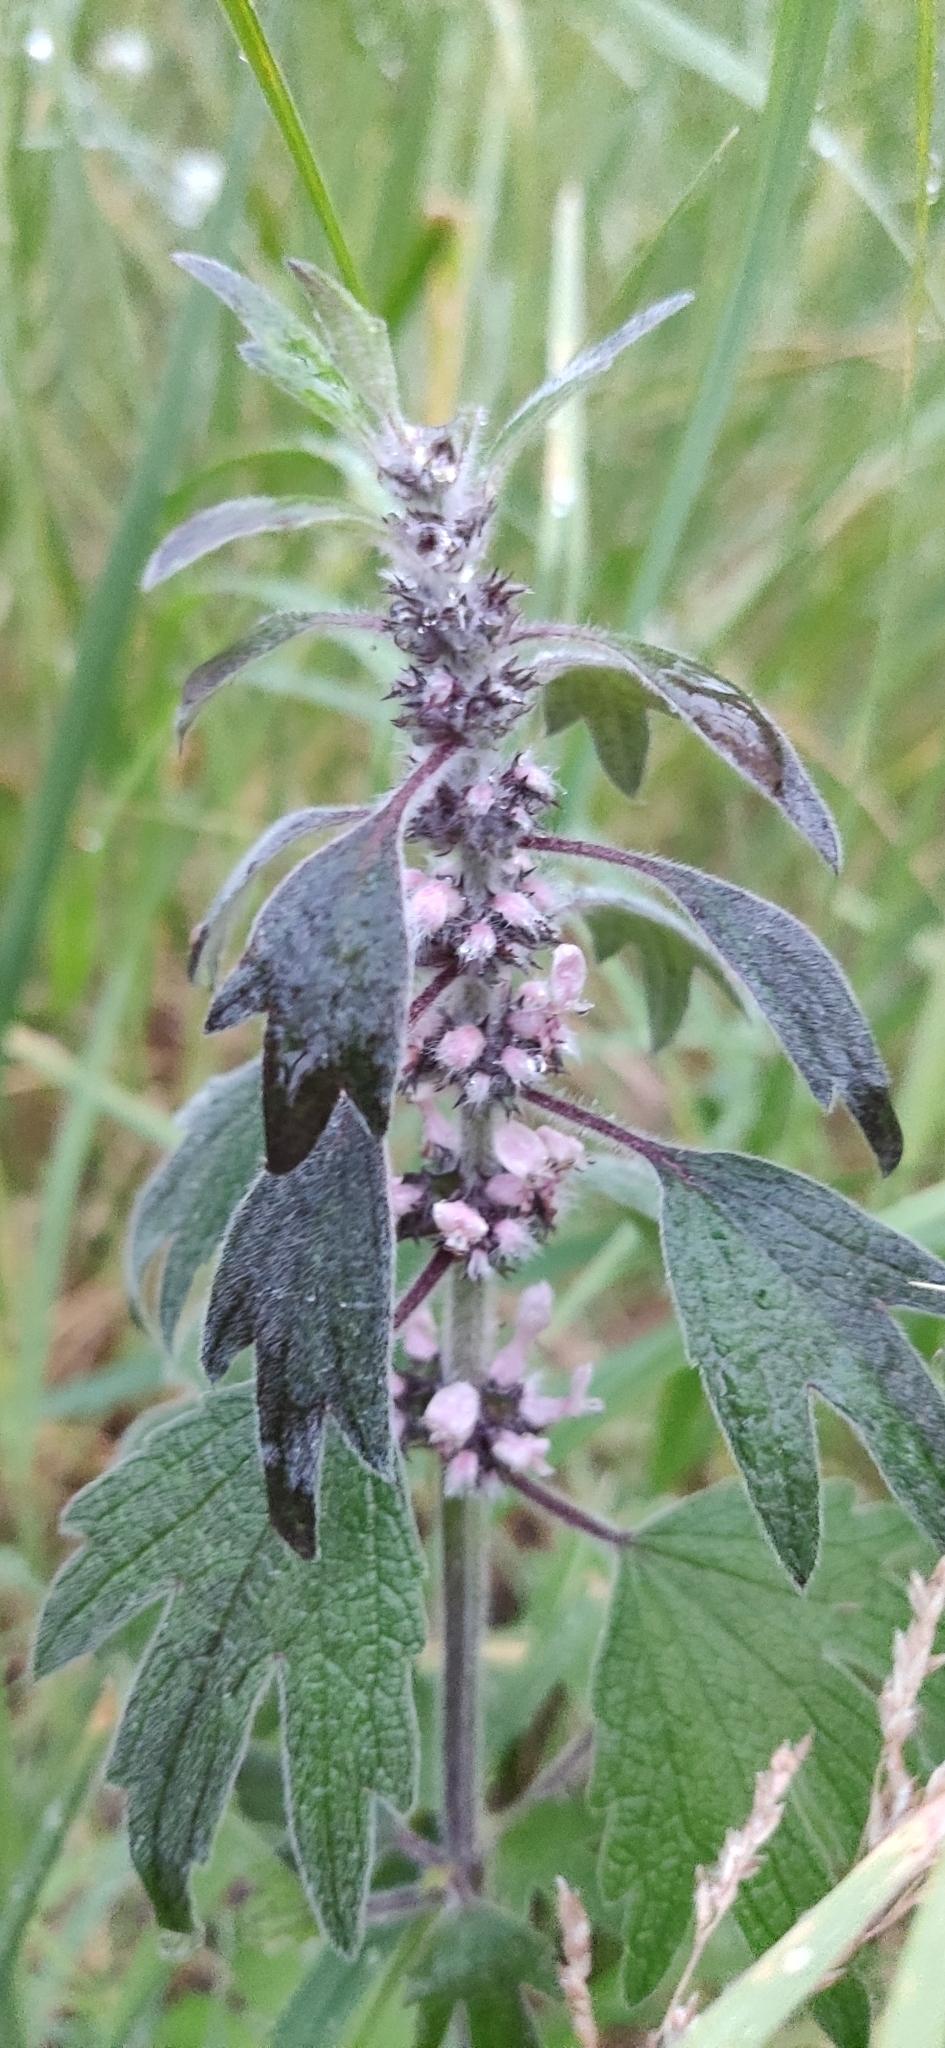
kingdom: Plantae
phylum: Tracheophyta
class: Magnoliopsida
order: Lamiales
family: Lamiaceae
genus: Leonurus
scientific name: Leonurus quinquelobatus
